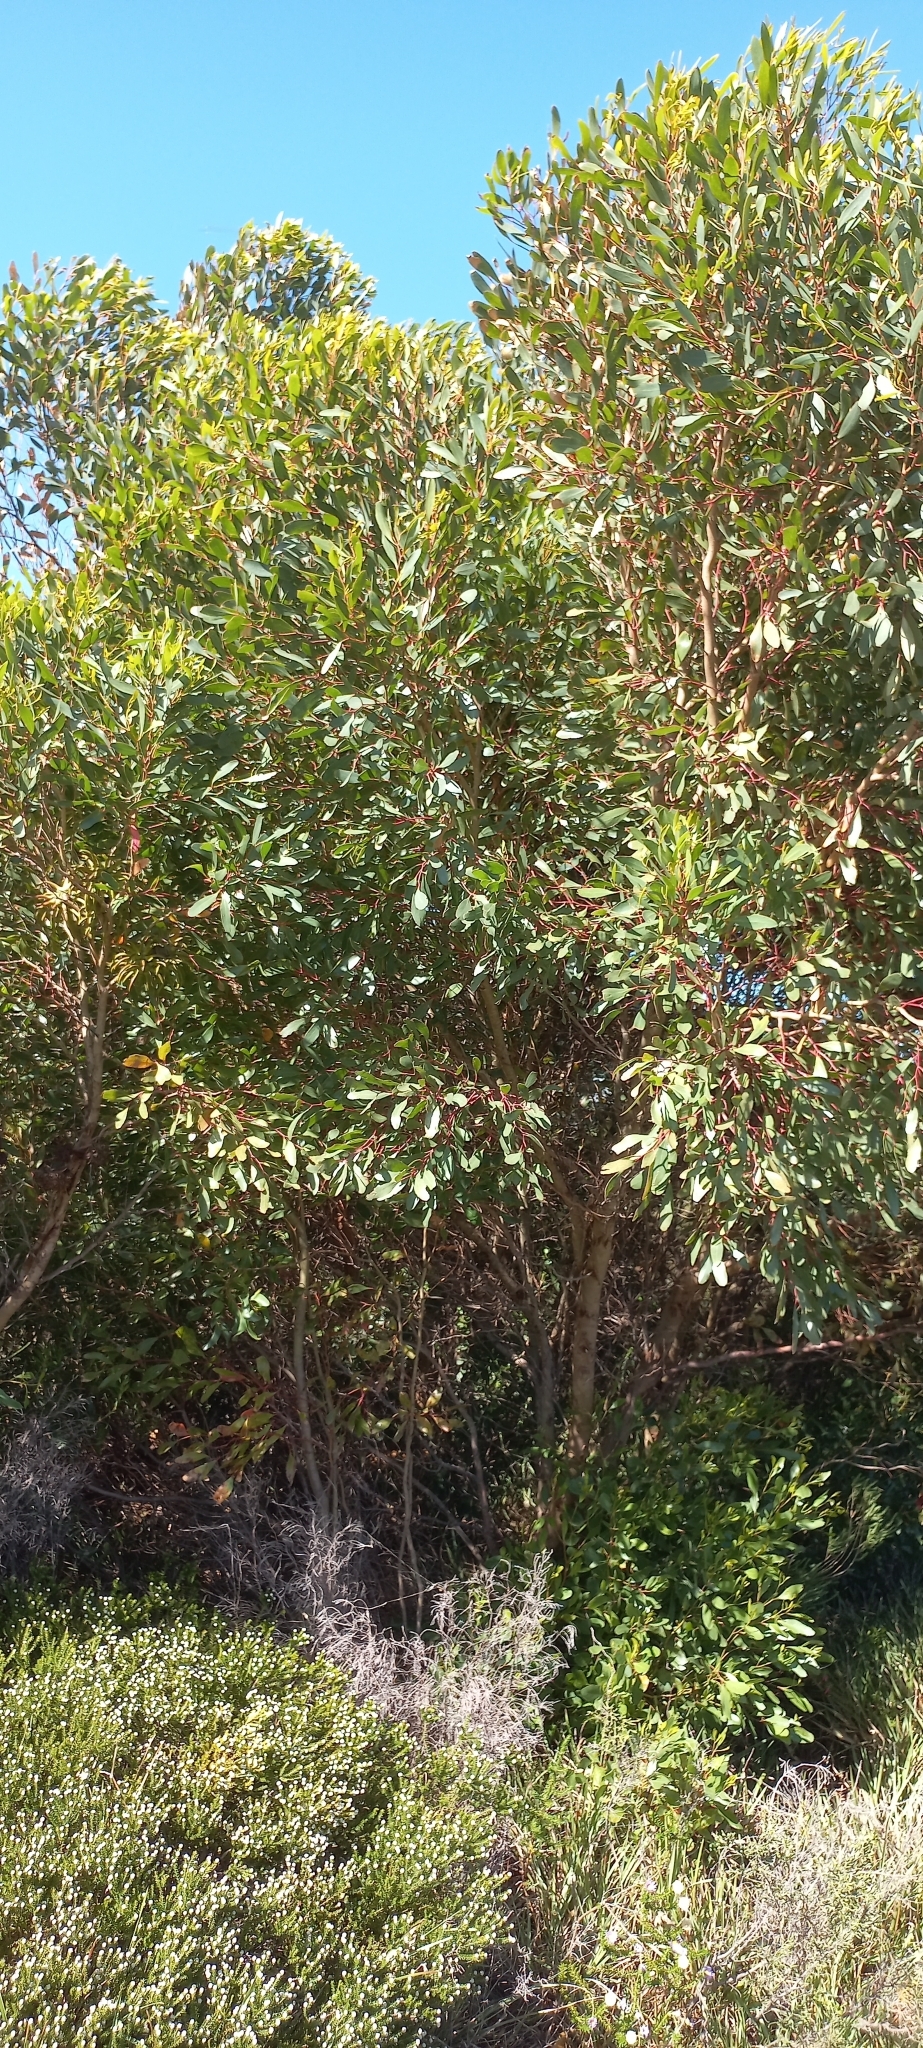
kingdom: Plantae
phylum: Tracheophyta
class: Magnoliopsida
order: Myrtales
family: Myrtaceae
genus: Eucalyptus
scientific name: Eucalyptus conferruminata
